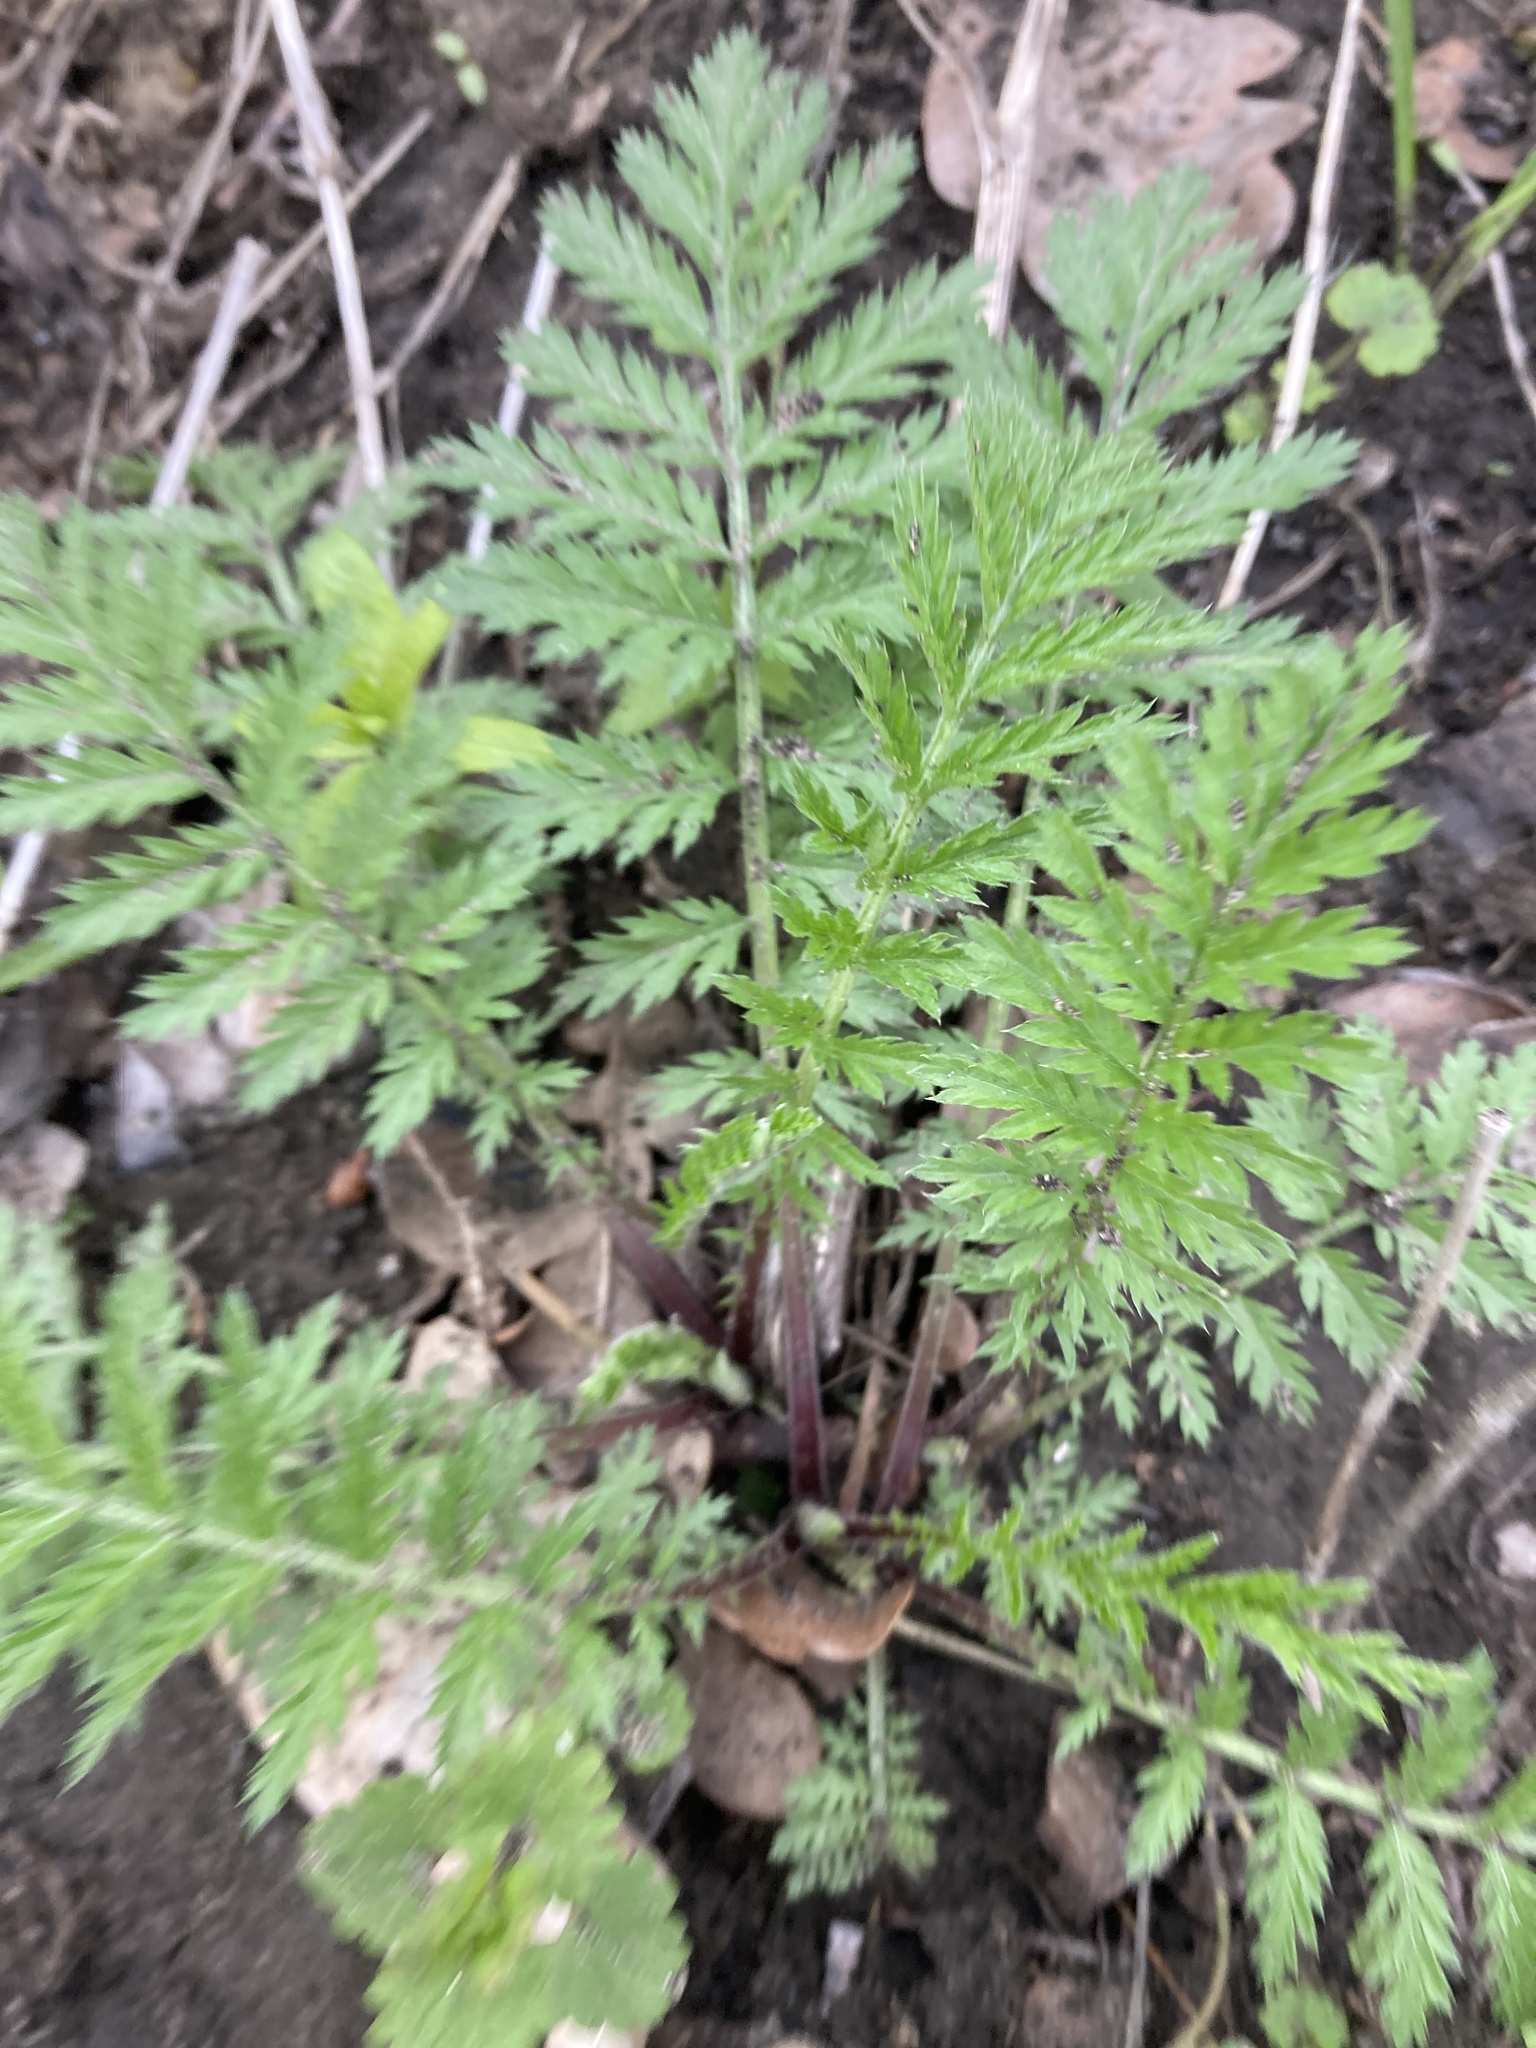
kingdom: Plantae
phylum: Tracheophyta
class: Magnoliopsida
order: Asterales
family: Asteraceae
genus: Tanacetum
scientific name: Tanacetum corymbosum
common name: Scentless feverfew
